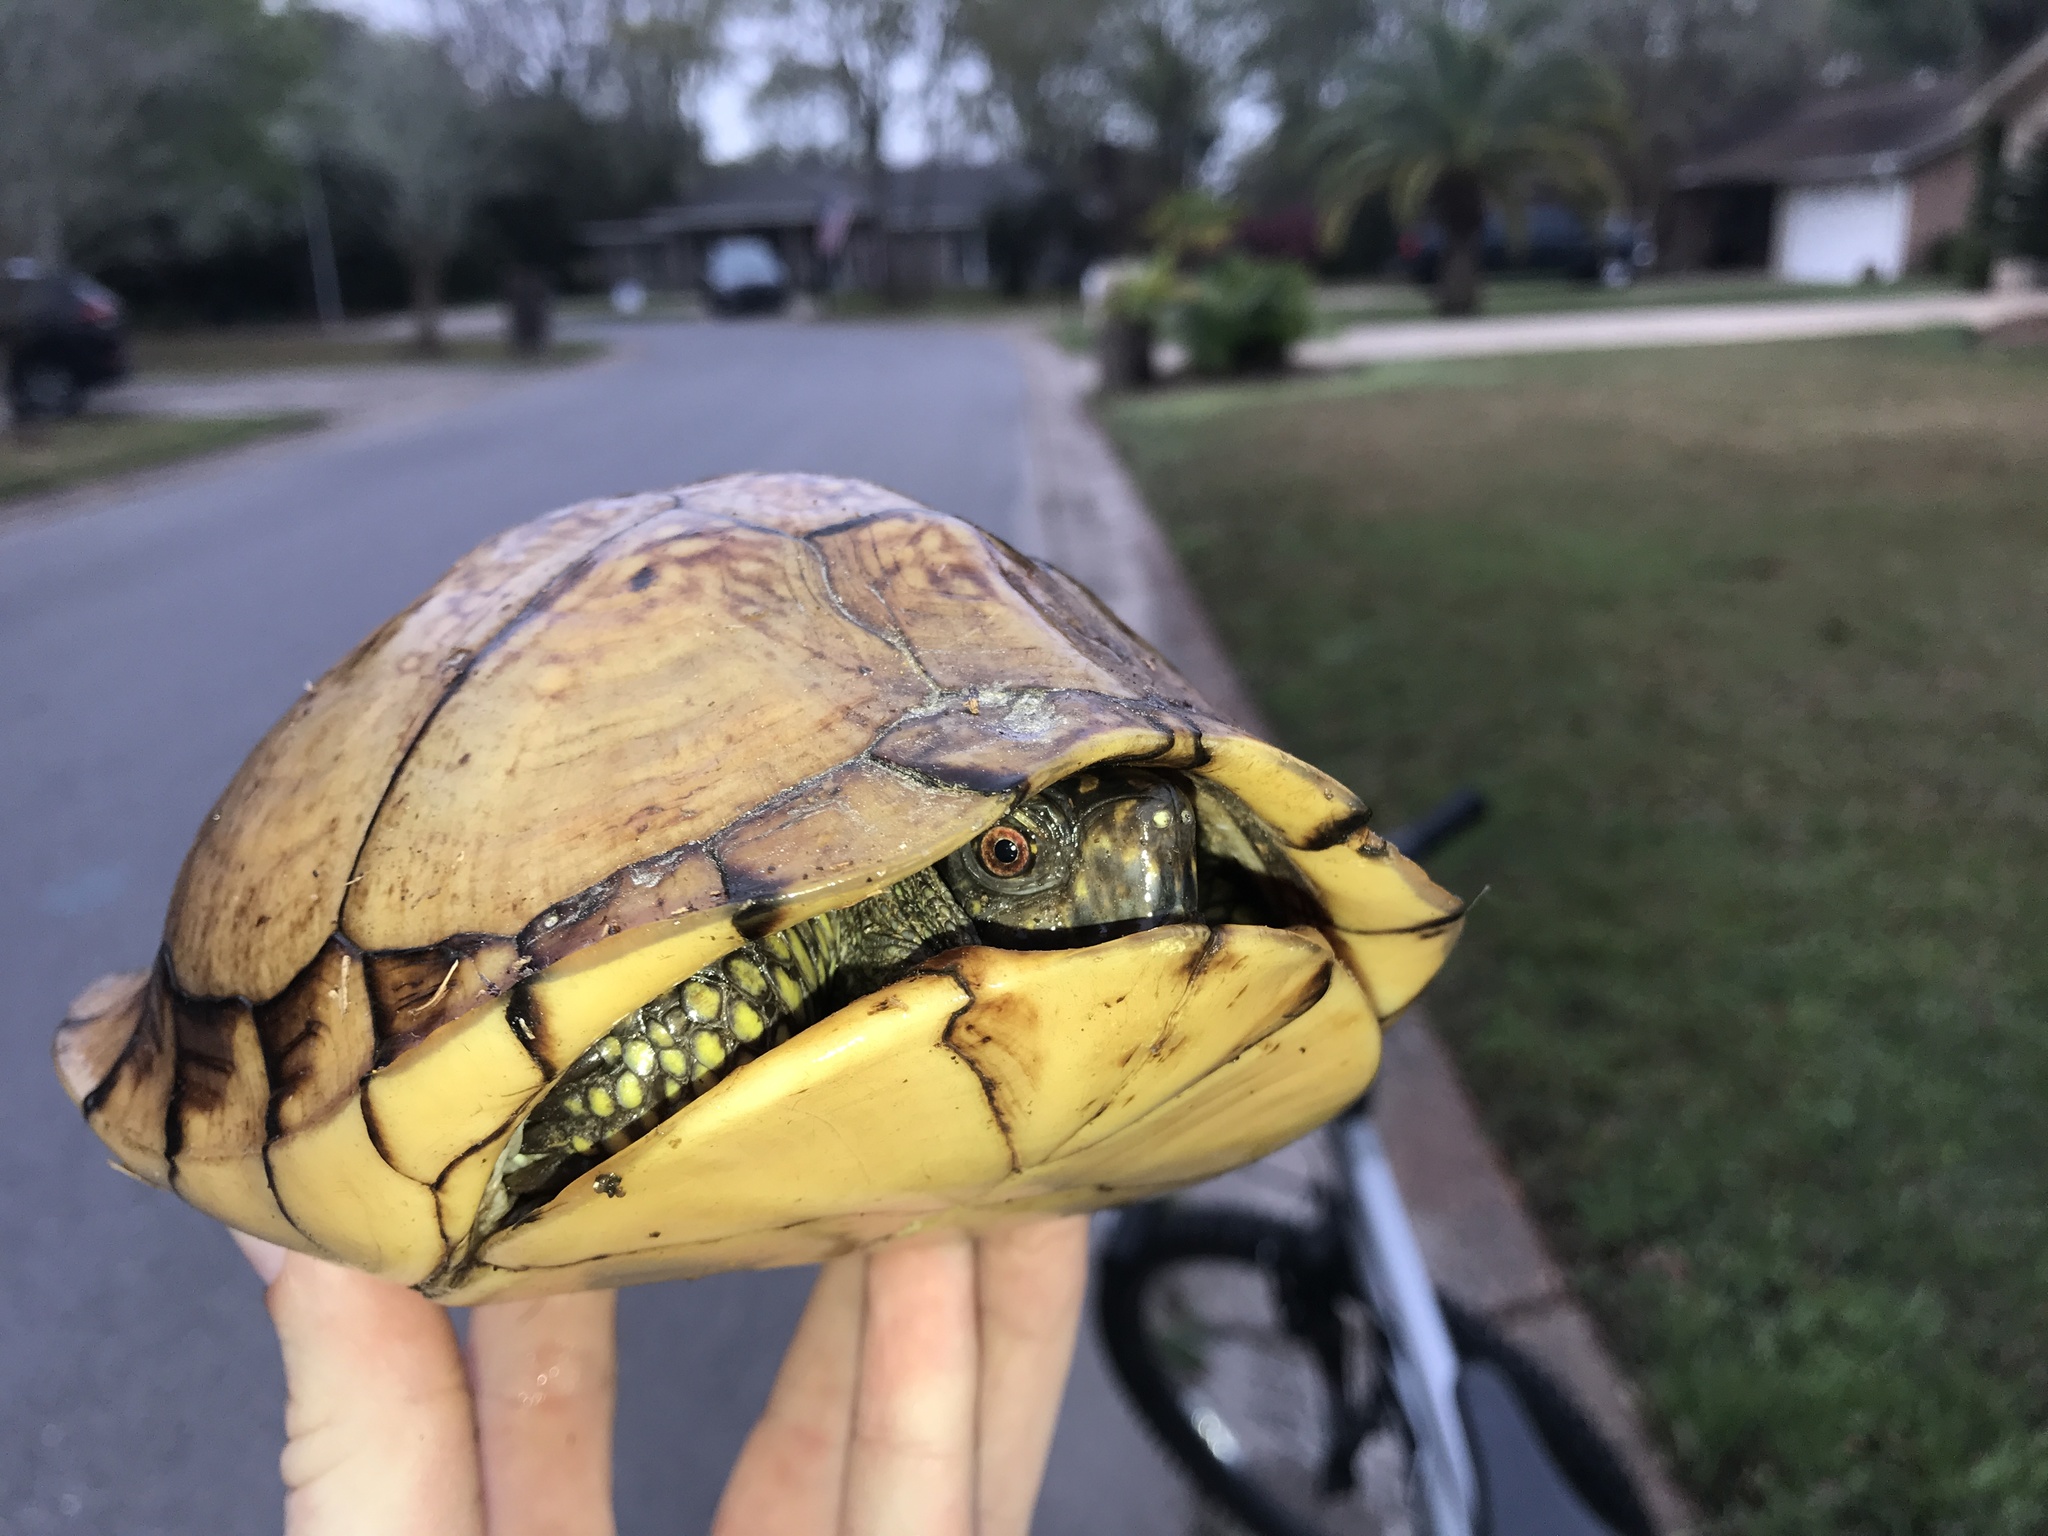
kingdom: Animalia
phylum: Chordata
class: Testudines
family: Emydidae
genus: Terrapene
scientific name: Terrapene carolina
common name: Common box turtle
